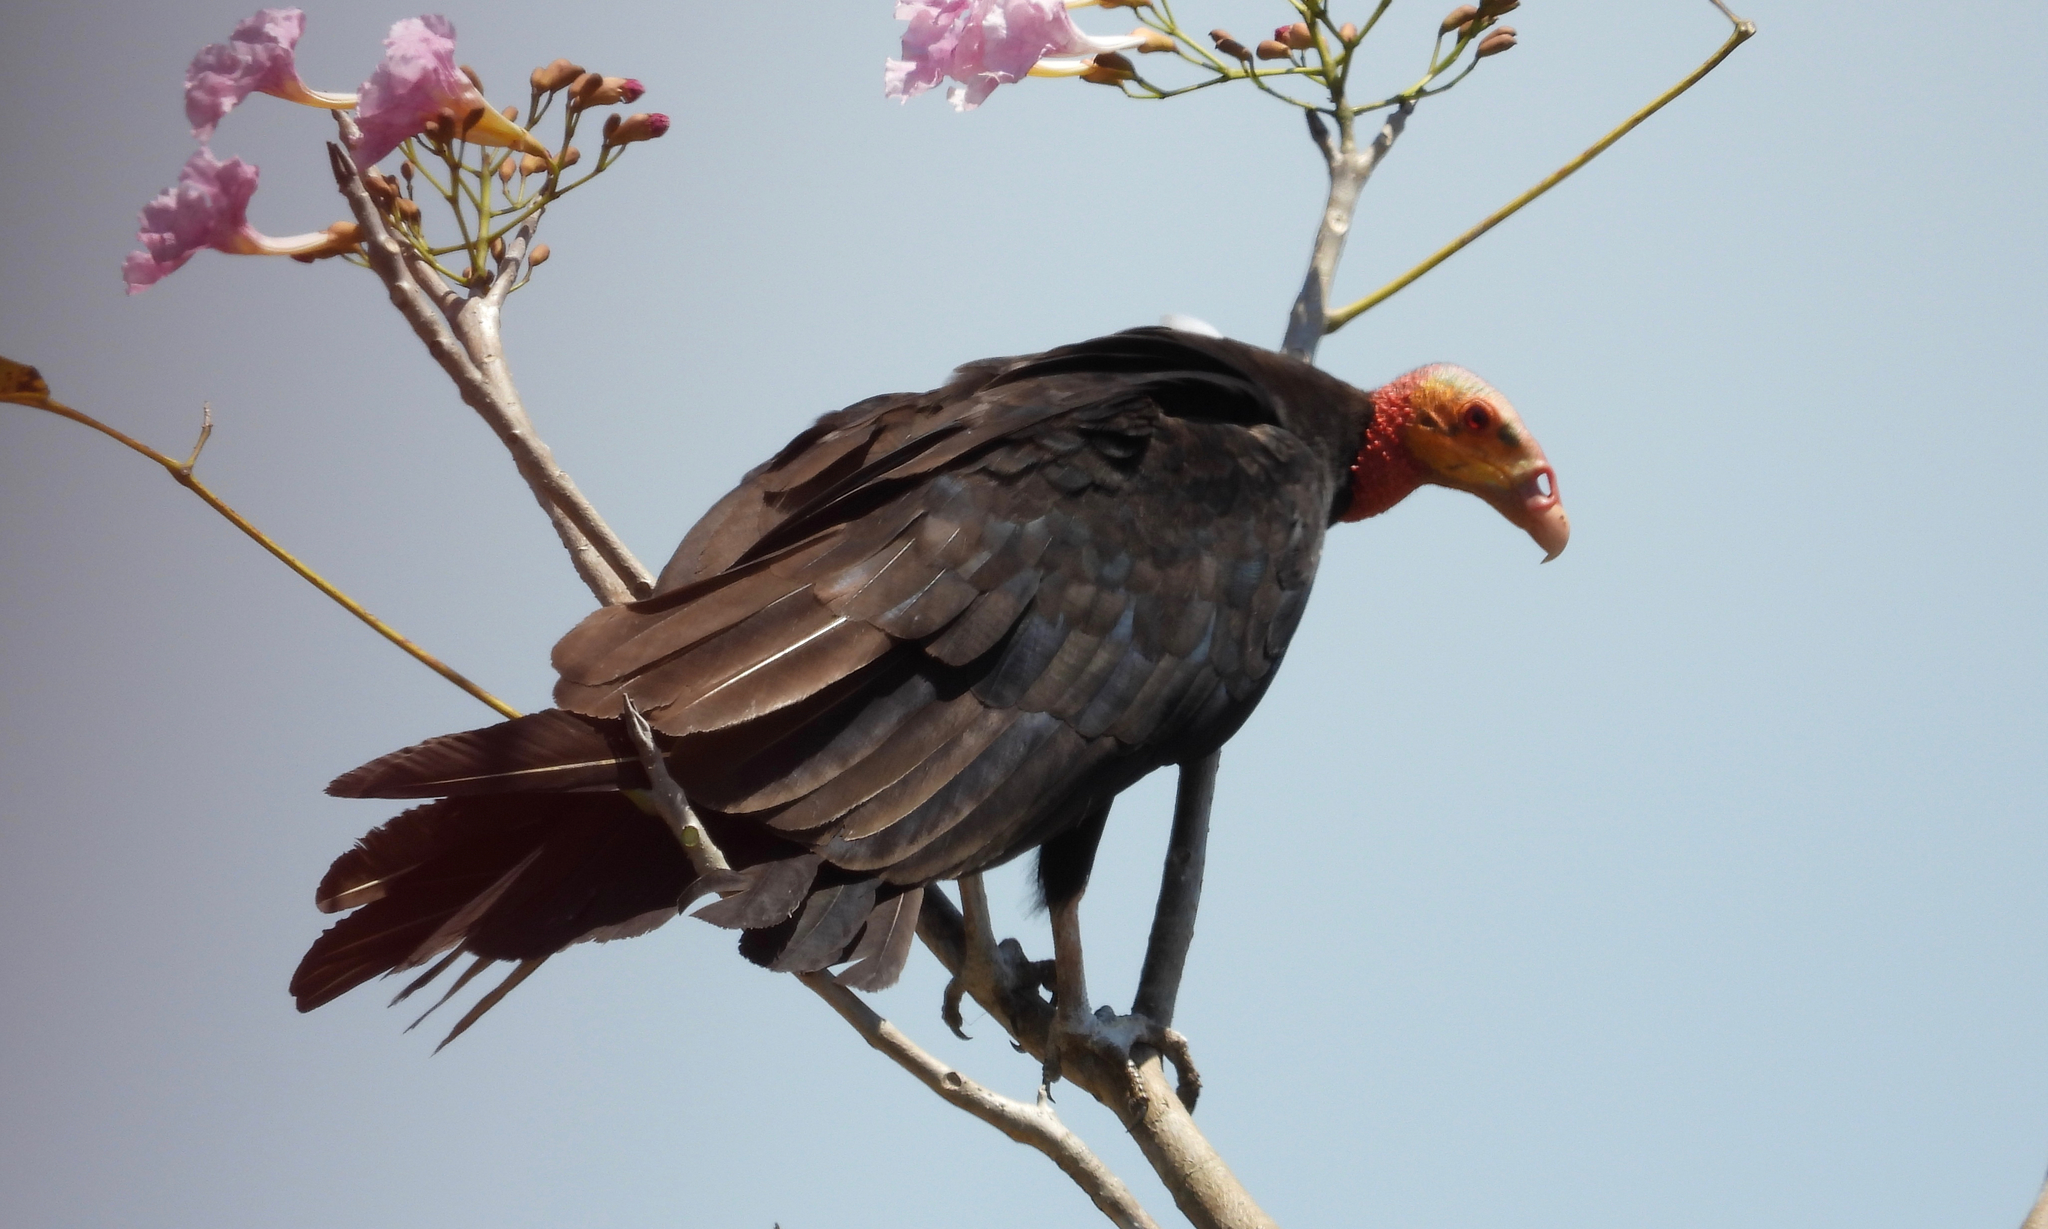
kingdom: Animalia
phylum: Chordata
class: Aves
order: Accipitriformes
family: Cathartidae
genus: Cathartes
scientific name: Cathartes burrovianus
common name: Lesser yellow-headed vulture
